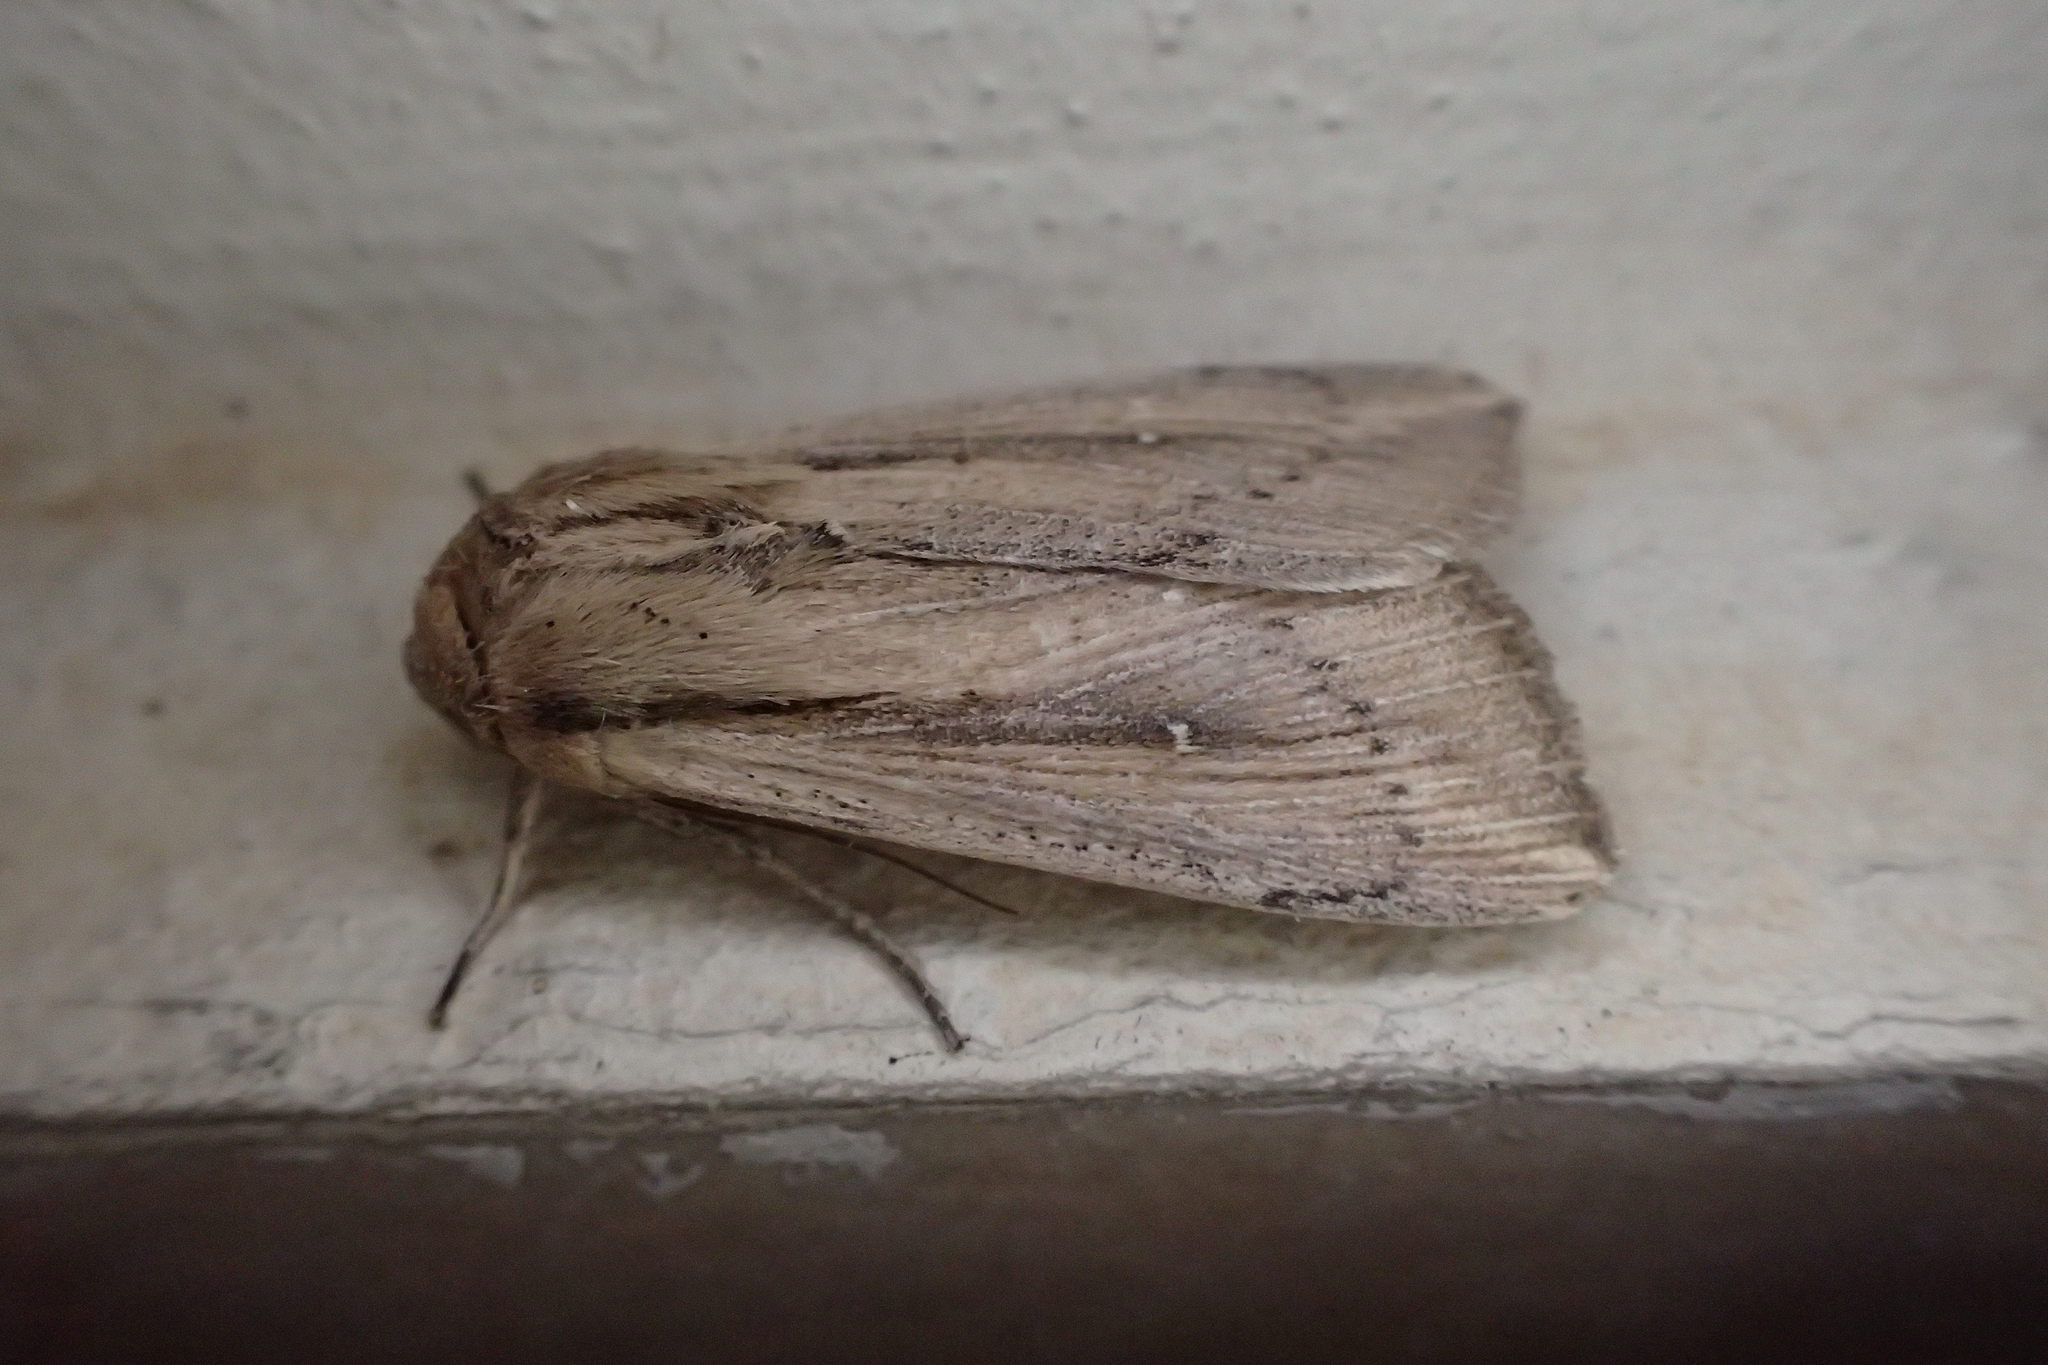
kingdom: Animalia
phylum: Arthropoda
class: Insecta
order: Lepidoptera
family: Noctuidae
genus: Leucania
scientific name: Leucania loreyi
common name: The cosmopolitan
